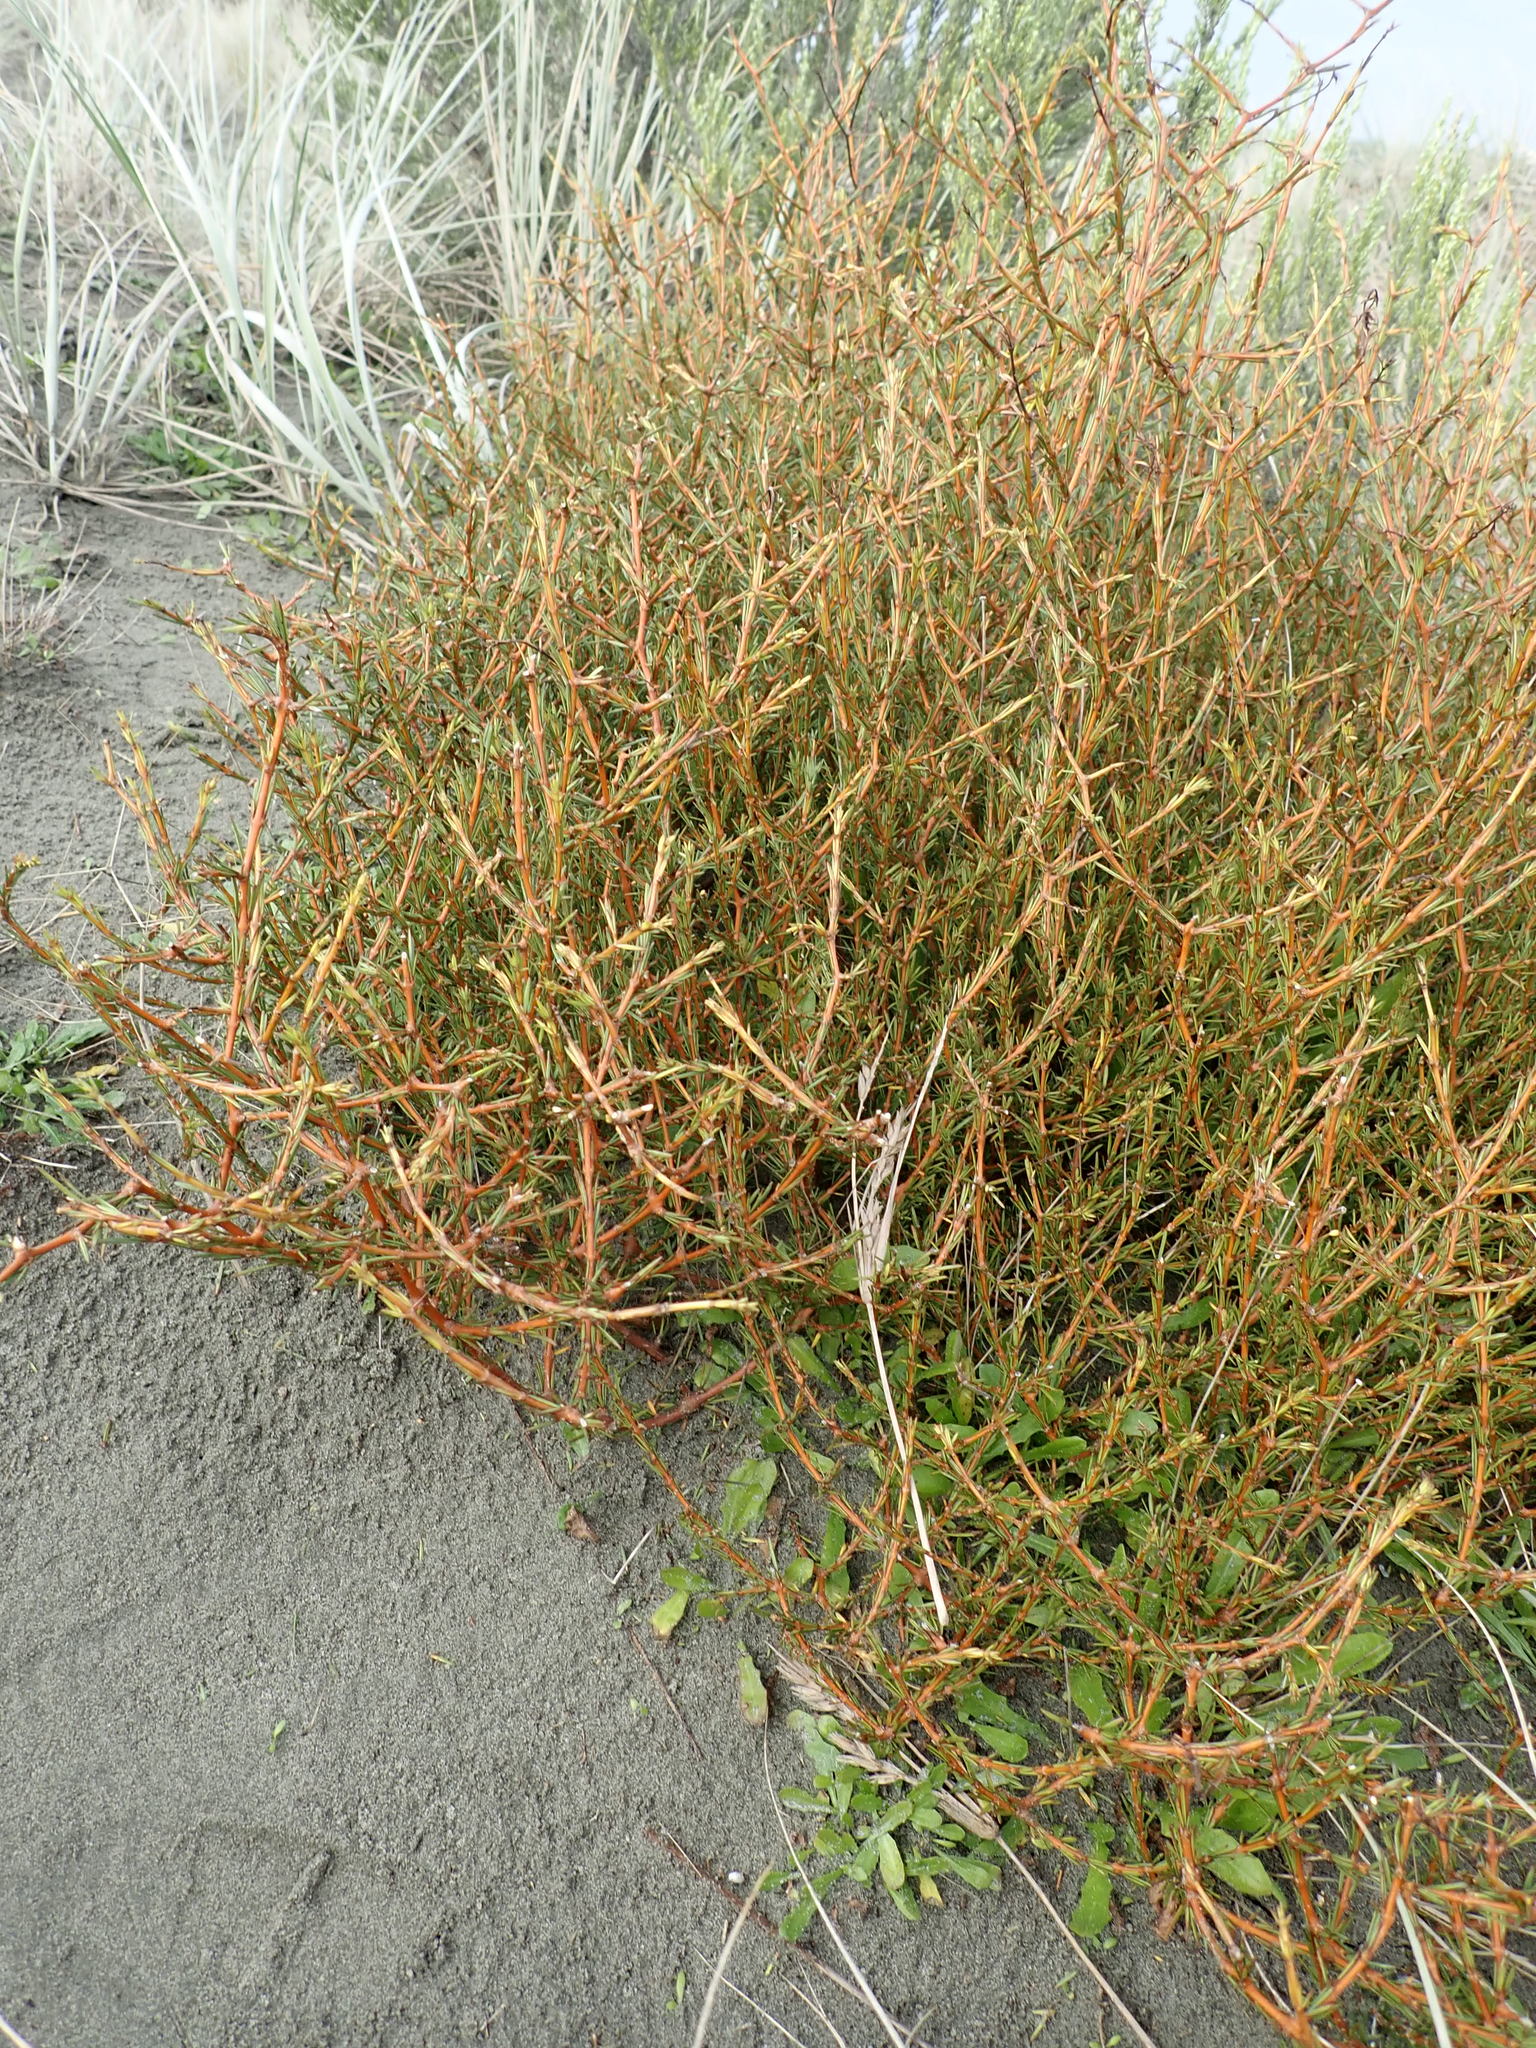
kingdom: Plantae
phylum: Tracheophyta
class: Magnoliopsida
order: Gentianales
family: Rubiaceae
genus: Coprosma
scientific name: Coprosma acerosa
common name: Sand coprosma
